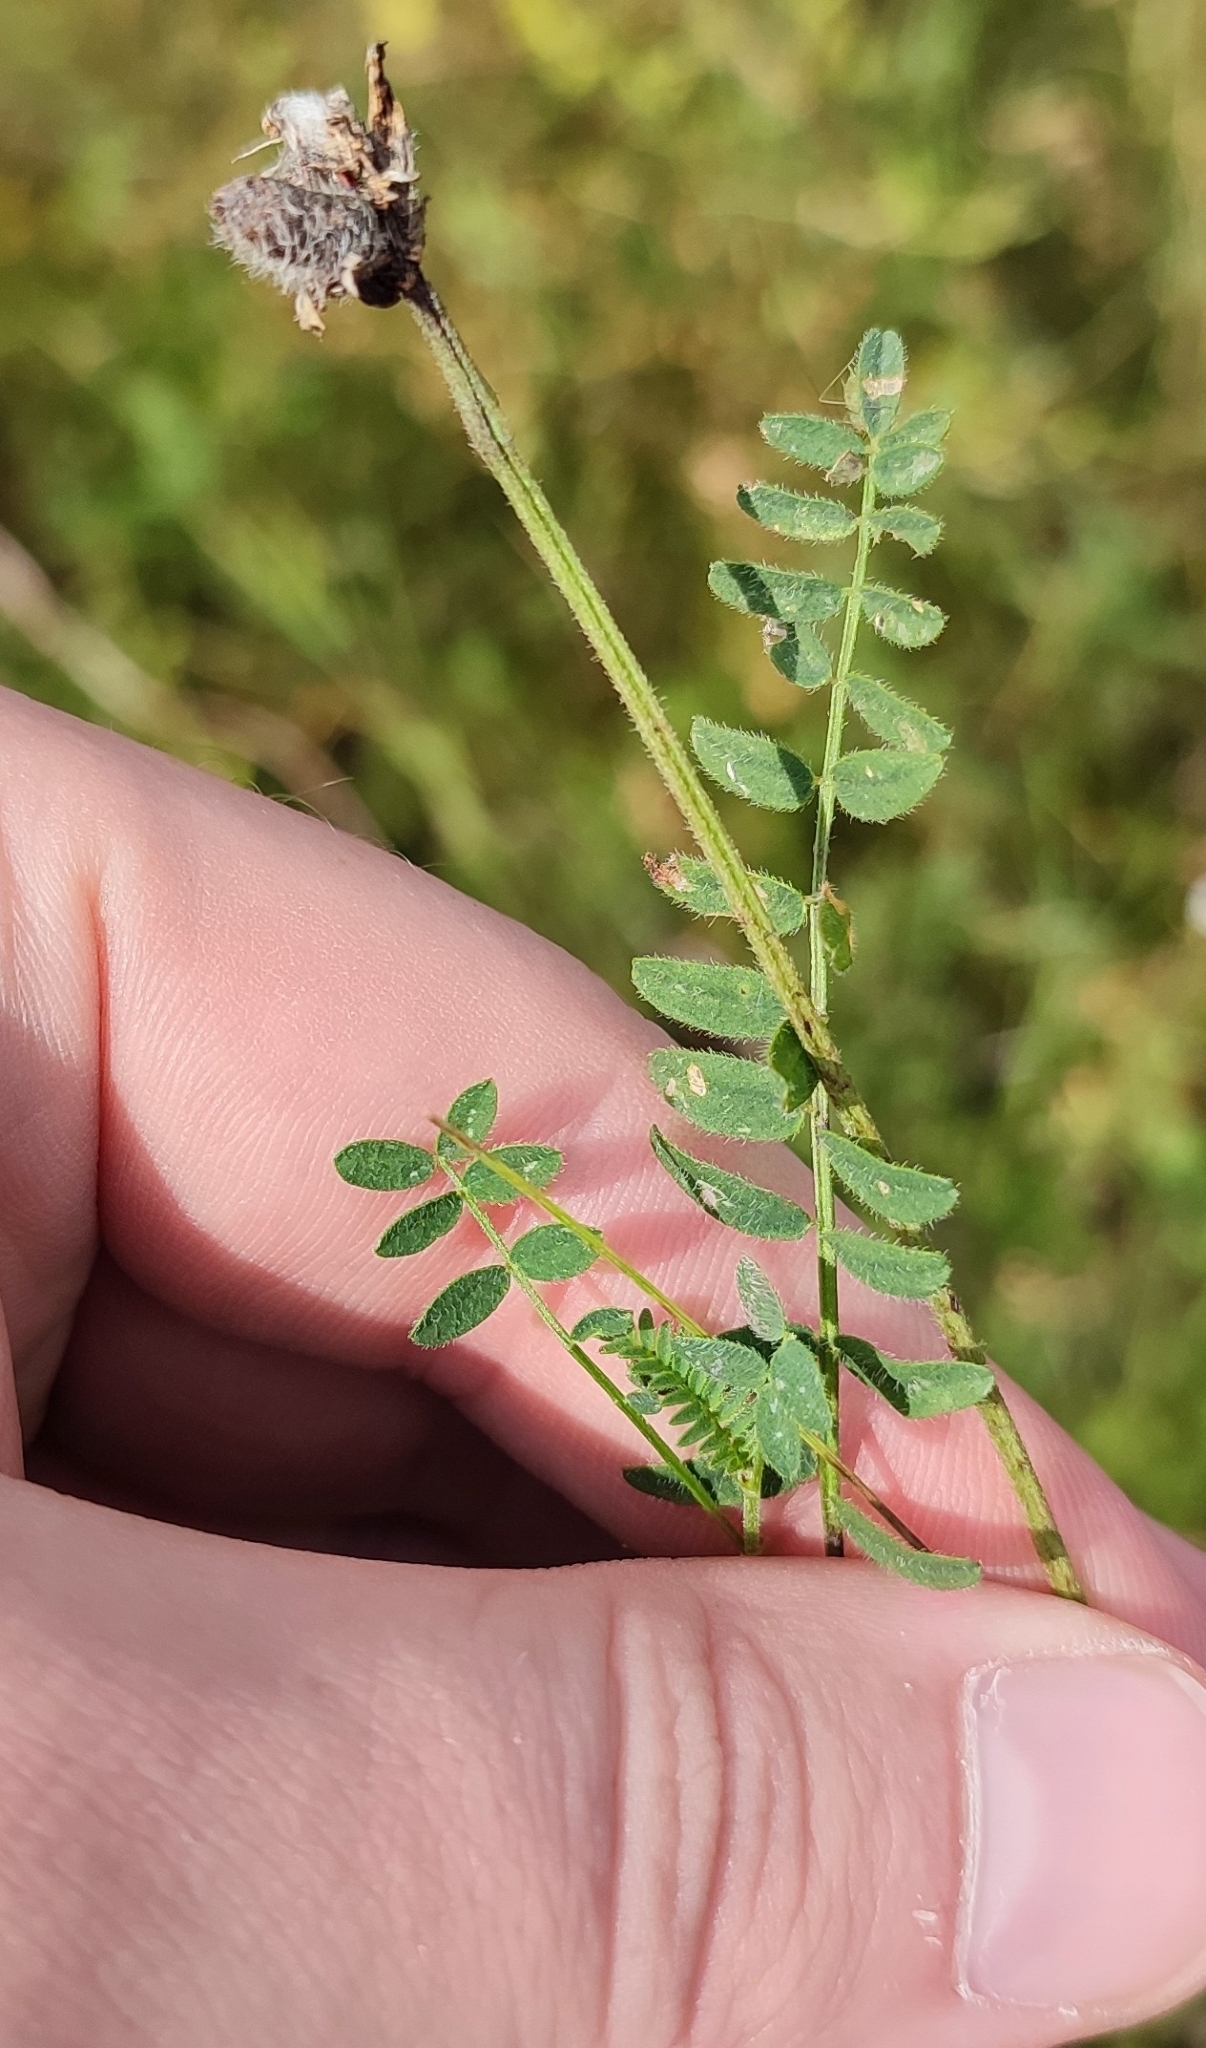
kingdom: Plantae
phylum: Tracheophyta
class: Magnoliopsida
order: Fabales
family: Fabaceae
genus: Astragalus
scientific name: Astragalus danicus
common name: Purple milk-vetch
